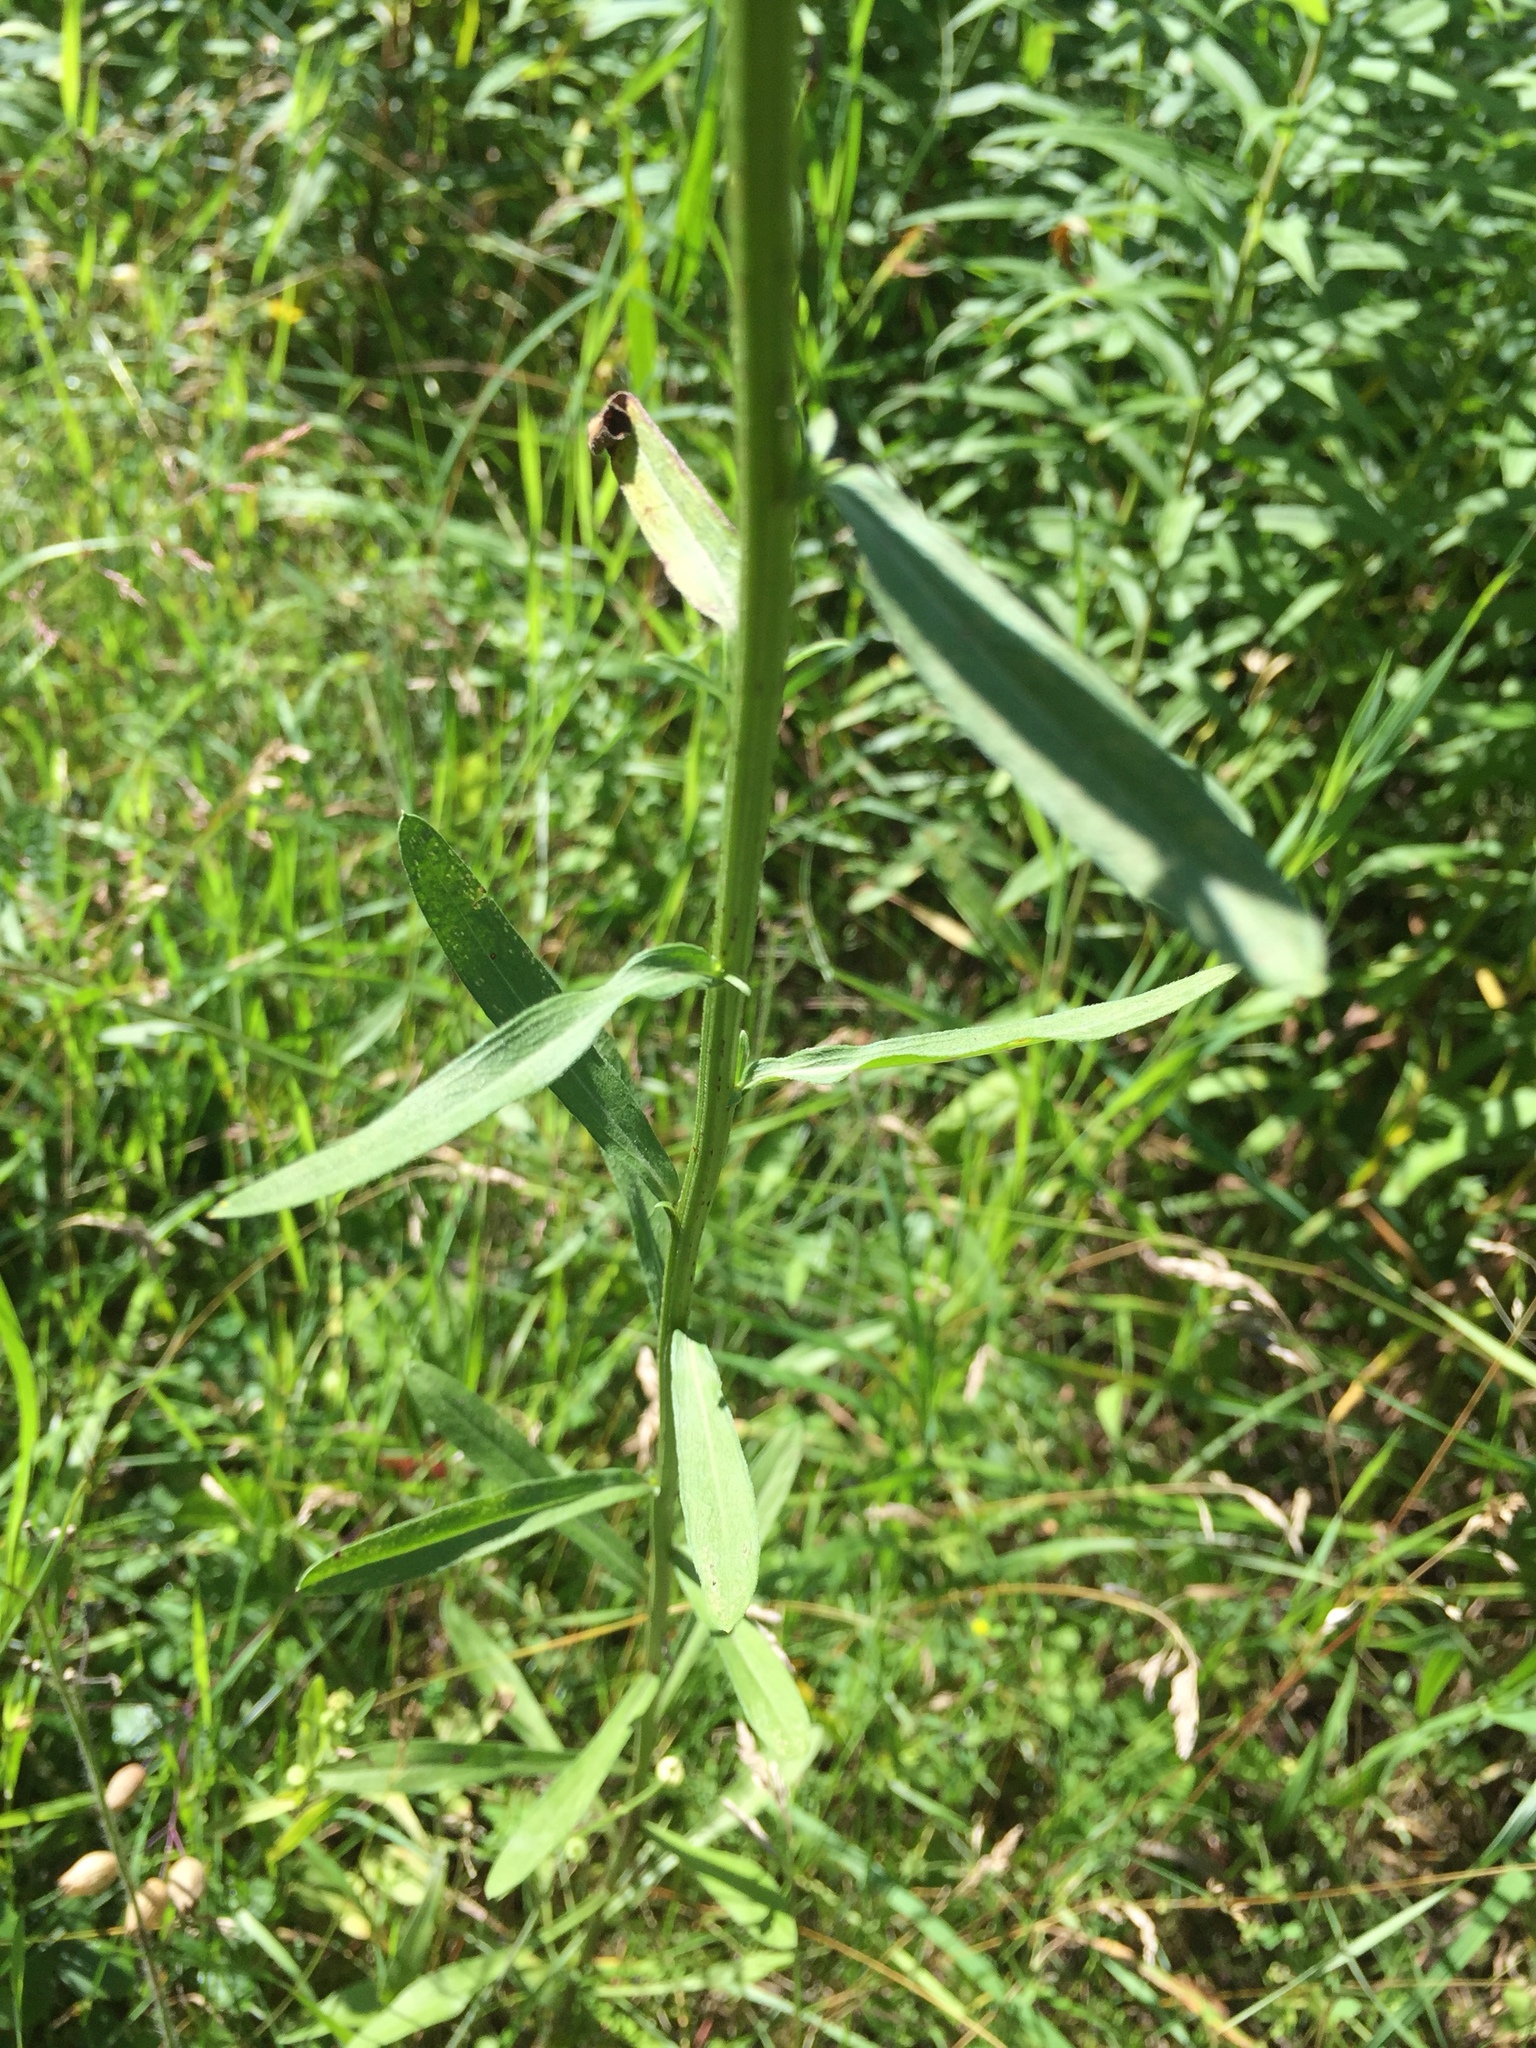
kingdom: Plantae
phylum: Tracheophyta
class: Magnoliopsida
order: Asterales
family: Asteraceae
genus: Erigeron
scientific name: Erigeron strigosus
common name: Common eastern fleabane
